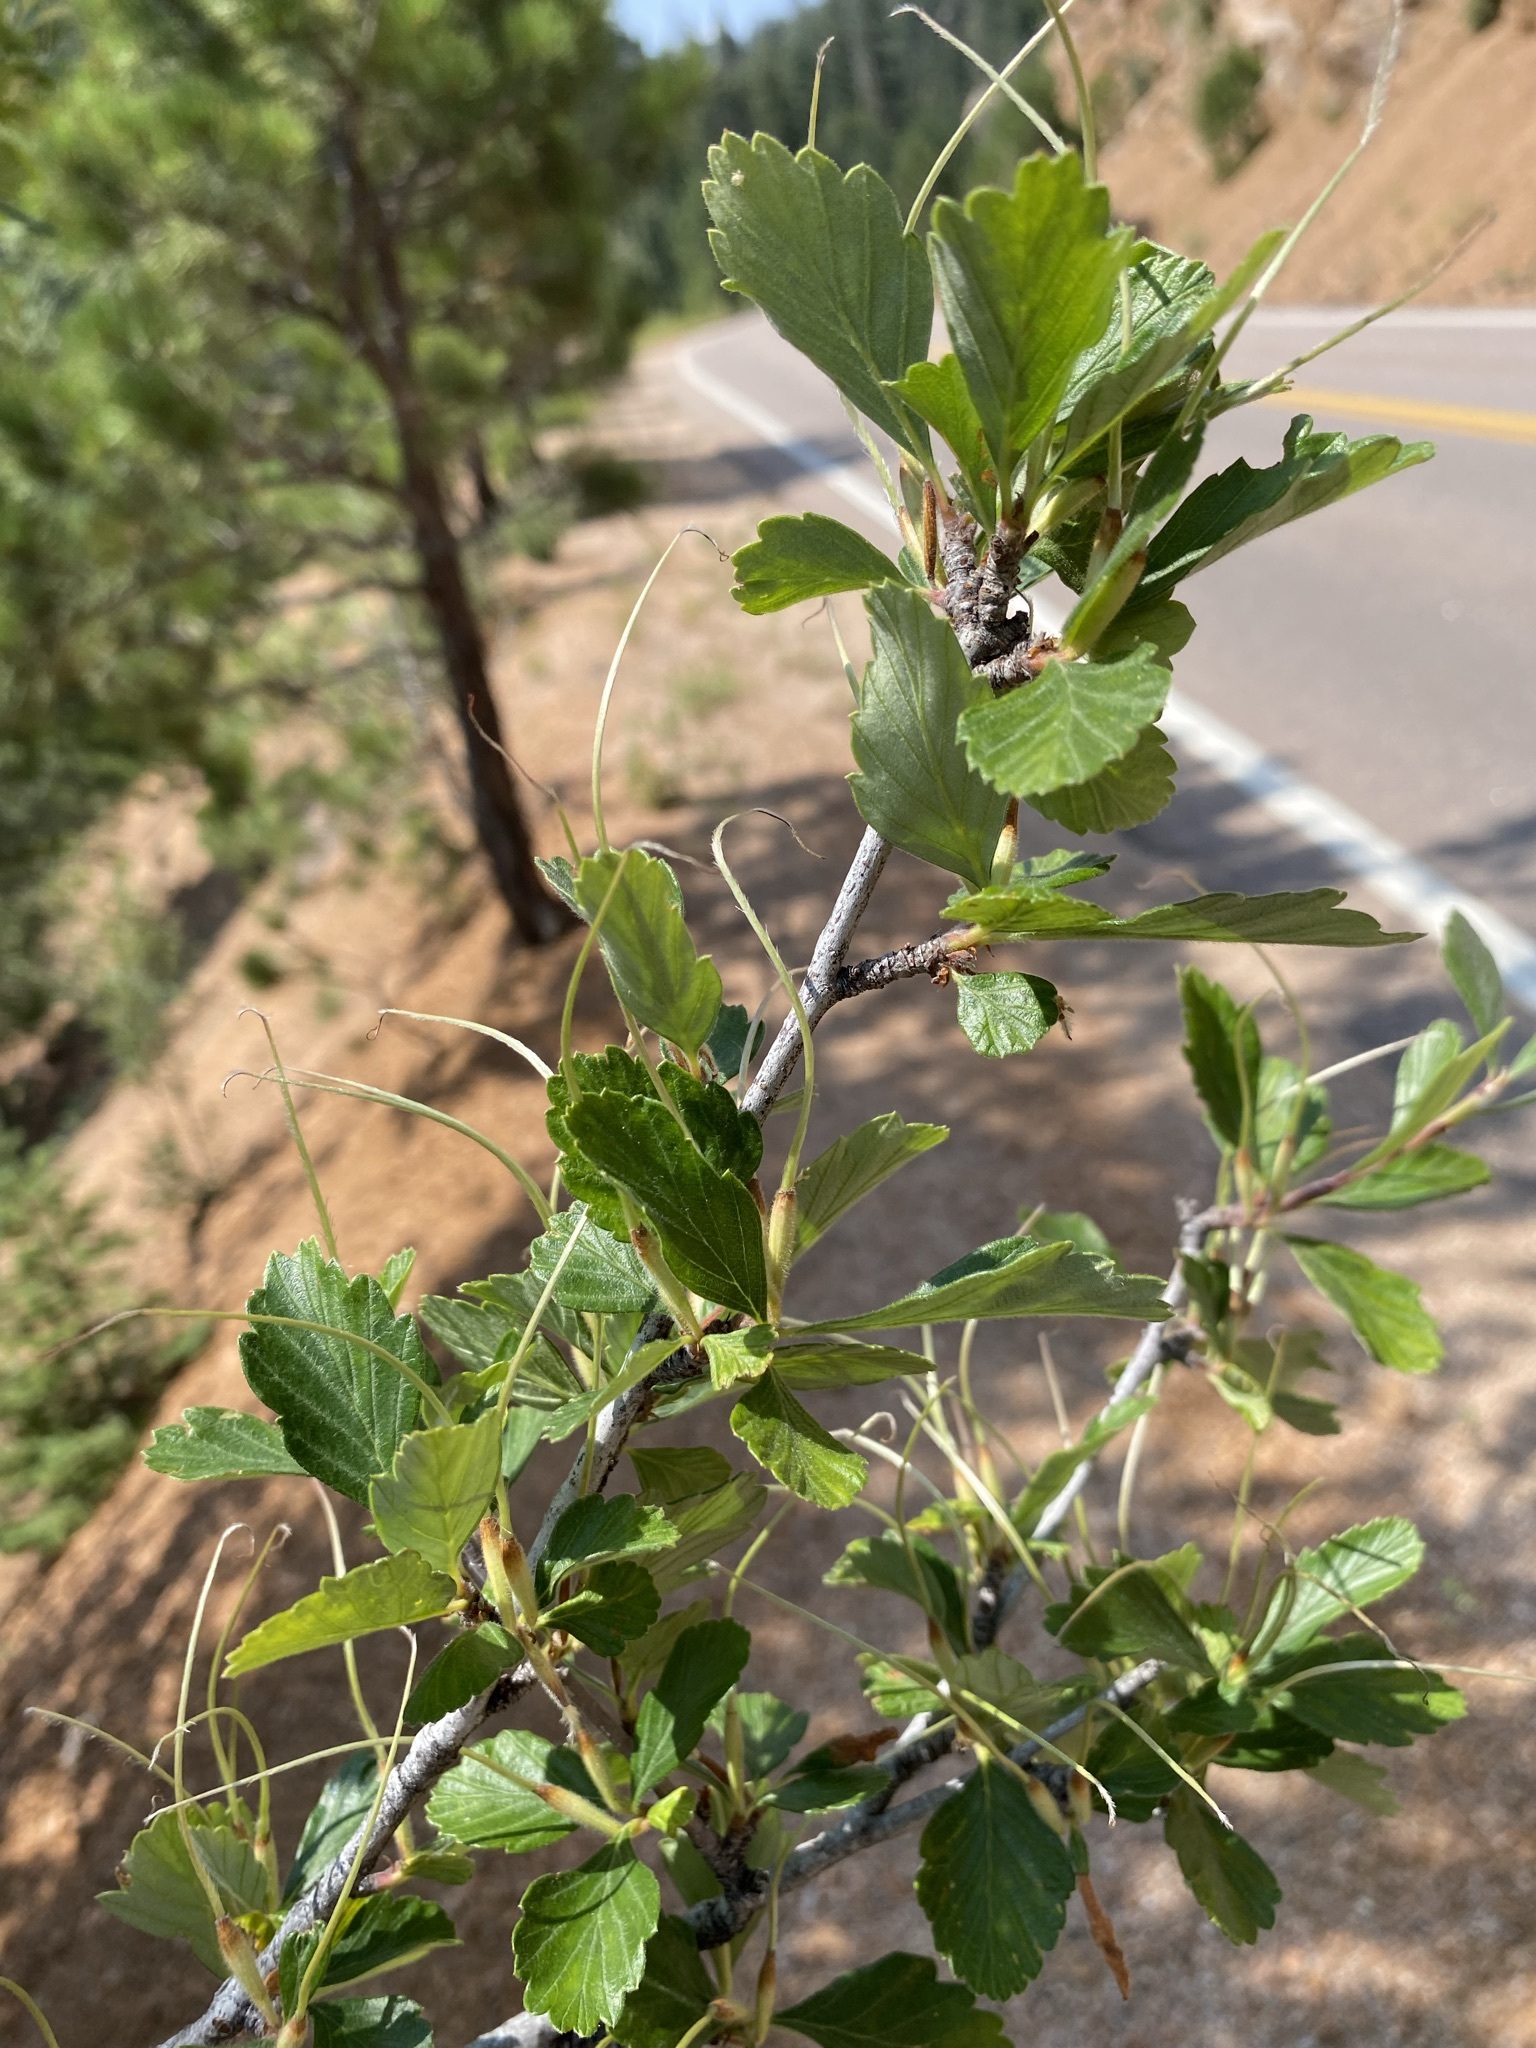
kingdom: Plantae
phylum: Tracheophyta
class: Magnoliopsida
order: Rosales
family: Rosaceae
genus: Cercocarpus
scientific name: Cercocarpus montanus
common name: Alder-leaf cercocarpus
